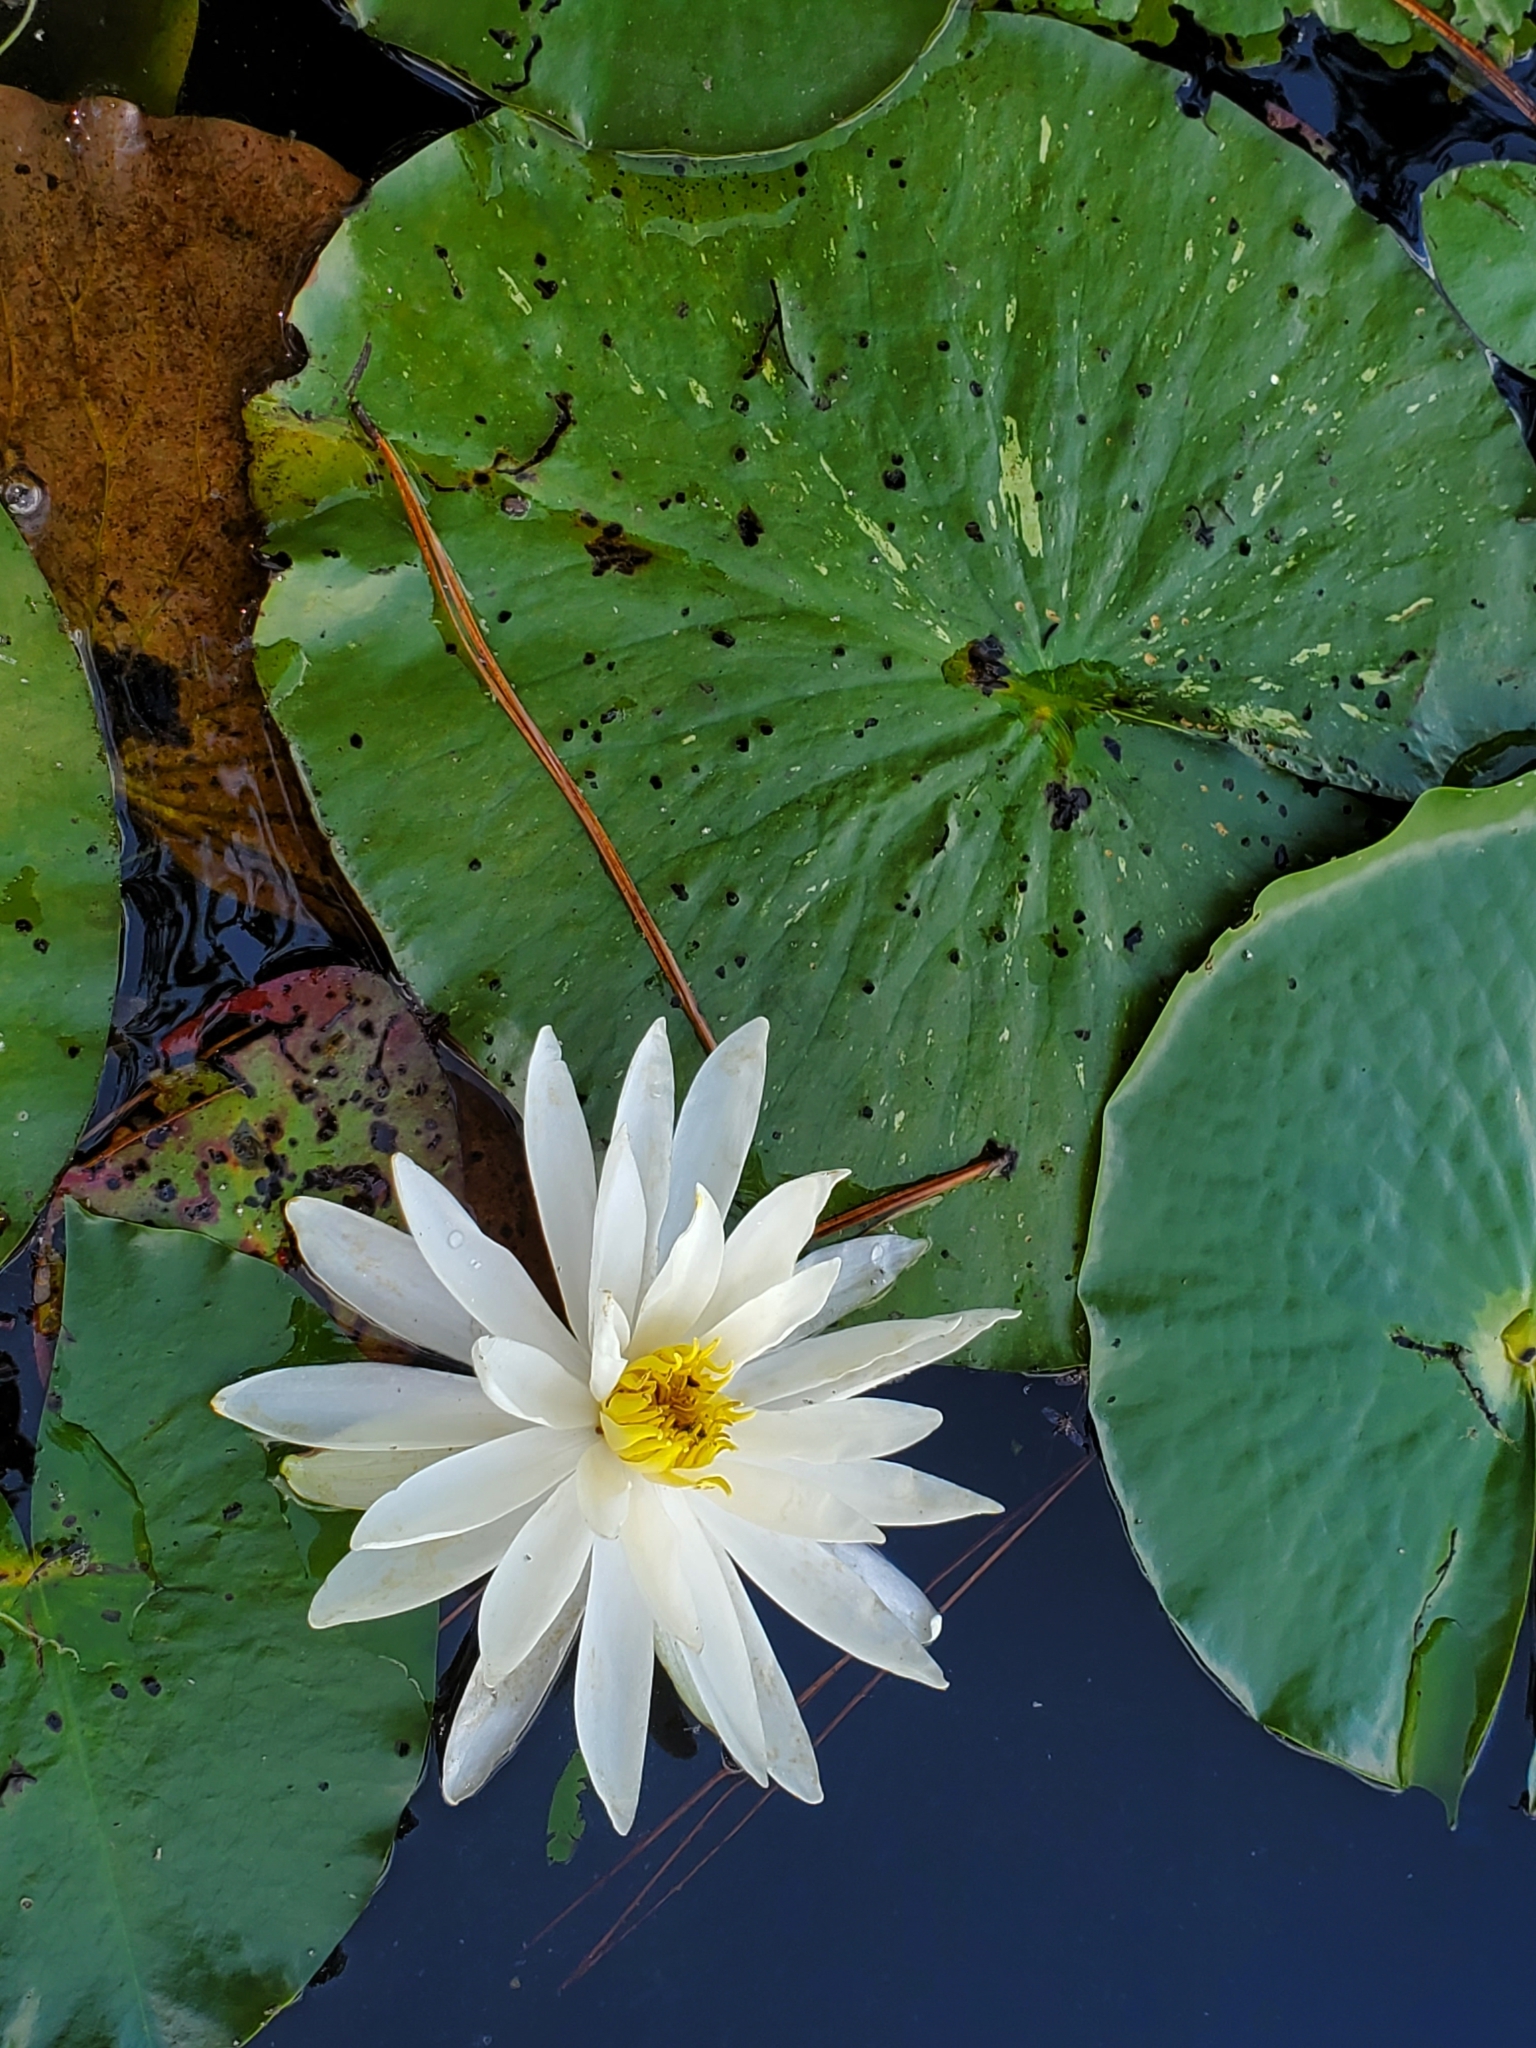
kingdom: Plantae
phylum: Tracheophyta
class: Magnoliopsida
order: Nymphaeales
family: Nymphaeaceae
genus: Nymphaea
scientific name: Nymphaea odorata
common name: Fragrant water-lily
